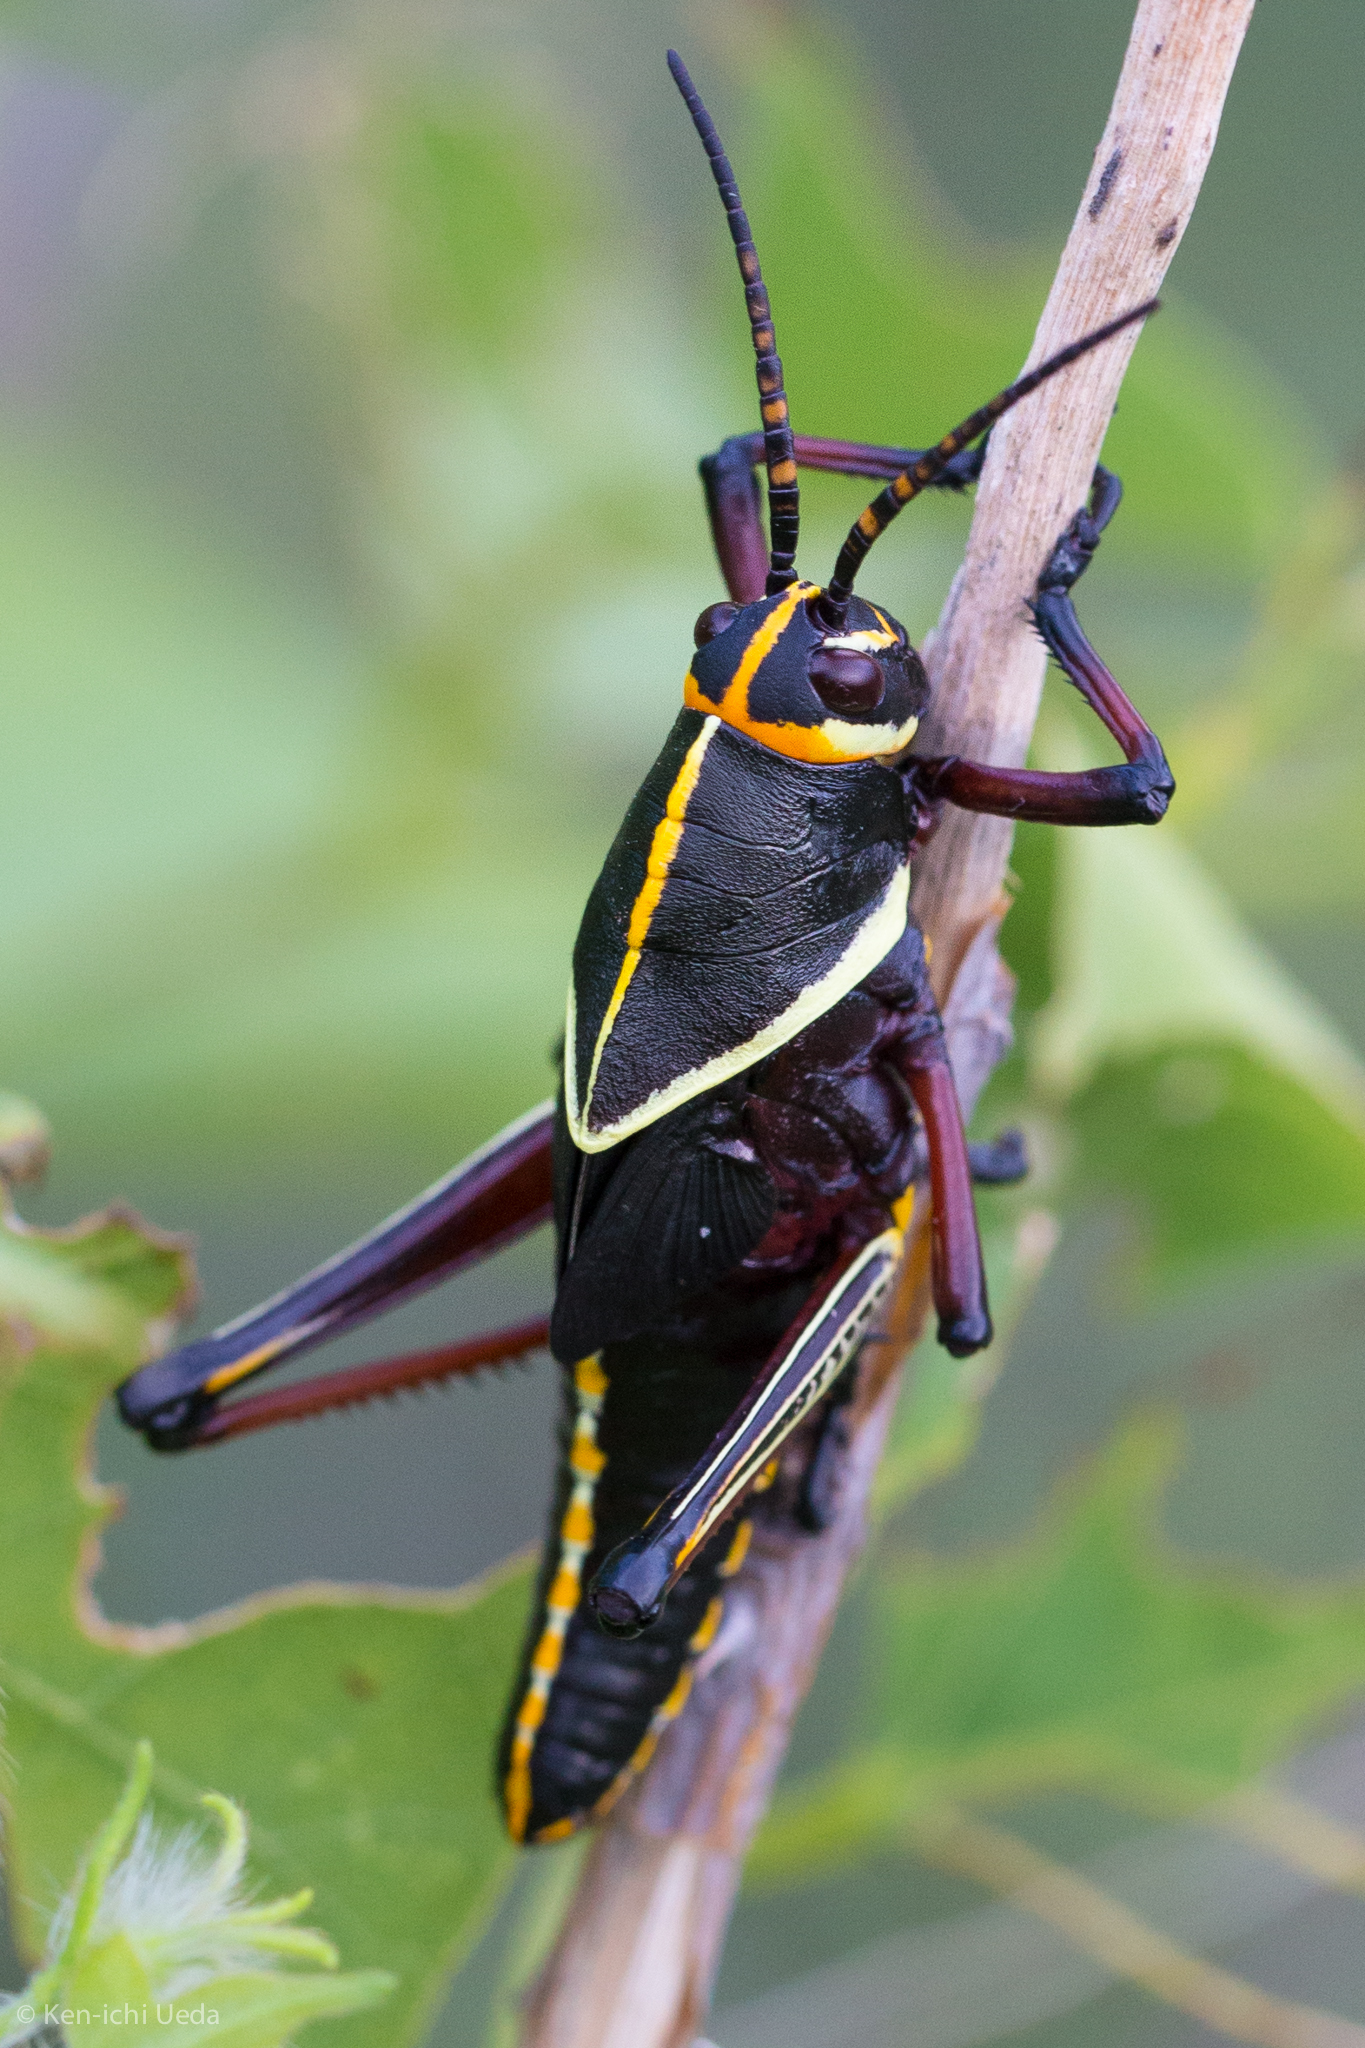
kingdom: Animalia
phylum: Arthropoda
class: Insecta
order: Orthoptera
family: Romaleidae
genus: Romalea
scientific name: Romalea
